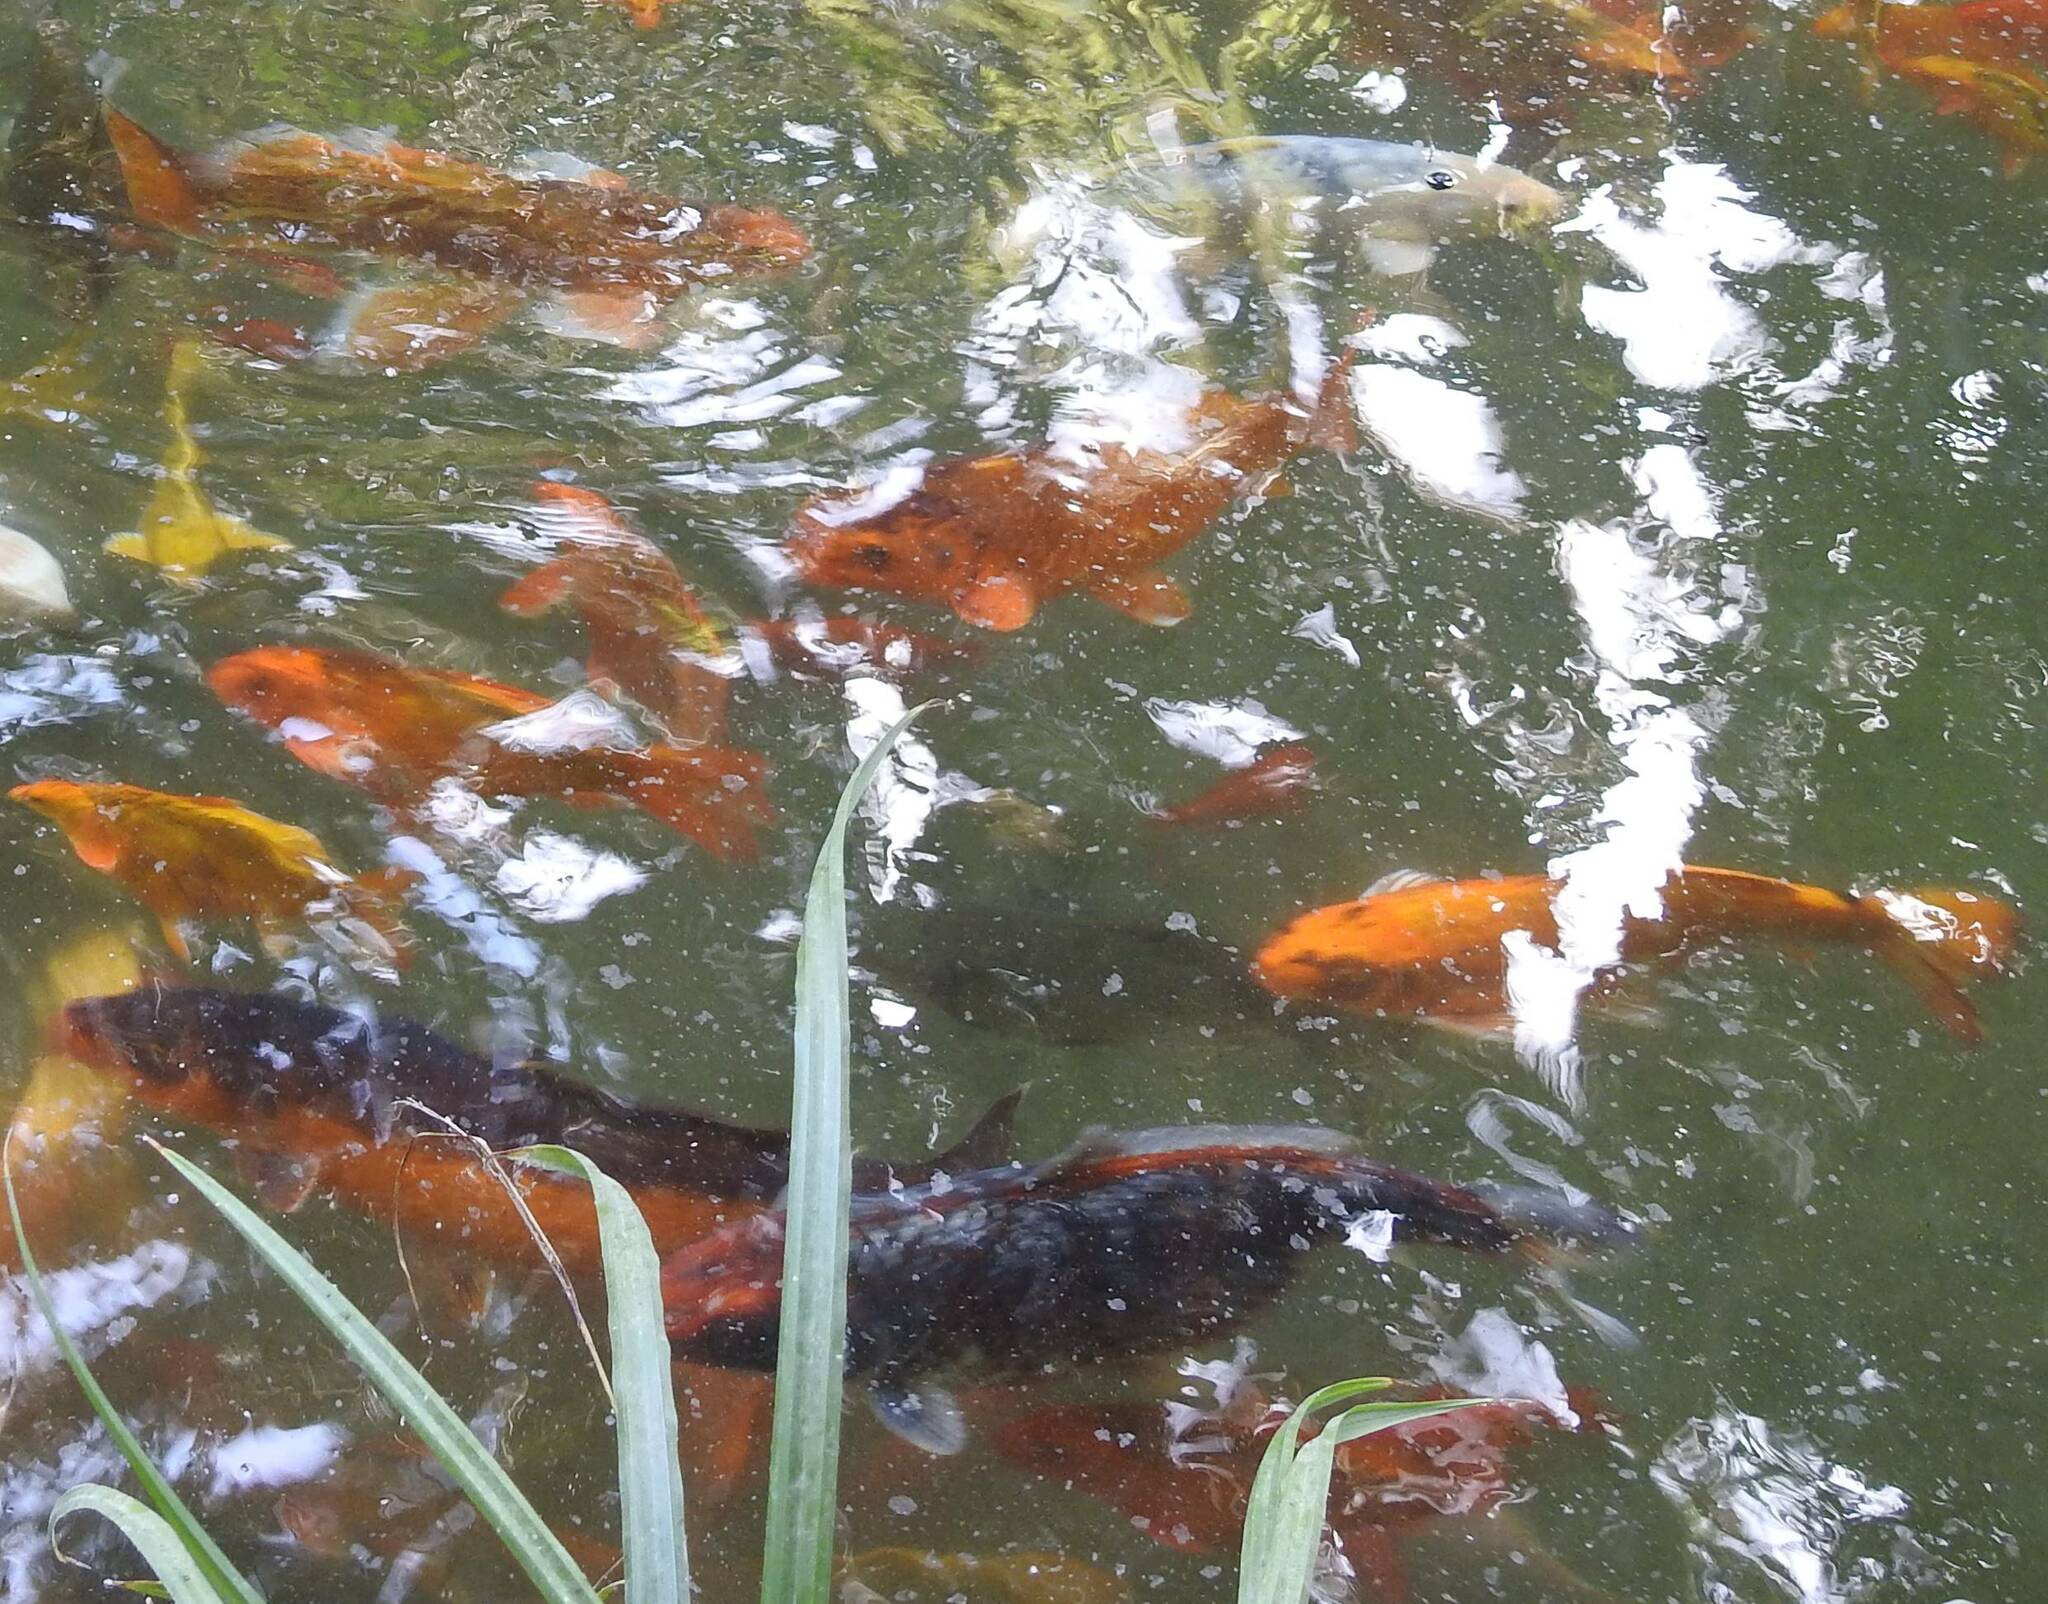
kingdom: Animalia
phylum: Chordata
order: Cypriniformes
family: Cyprinidae
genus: Cyprinus
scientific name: Cyprinus rubrofuscus
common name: Koi
